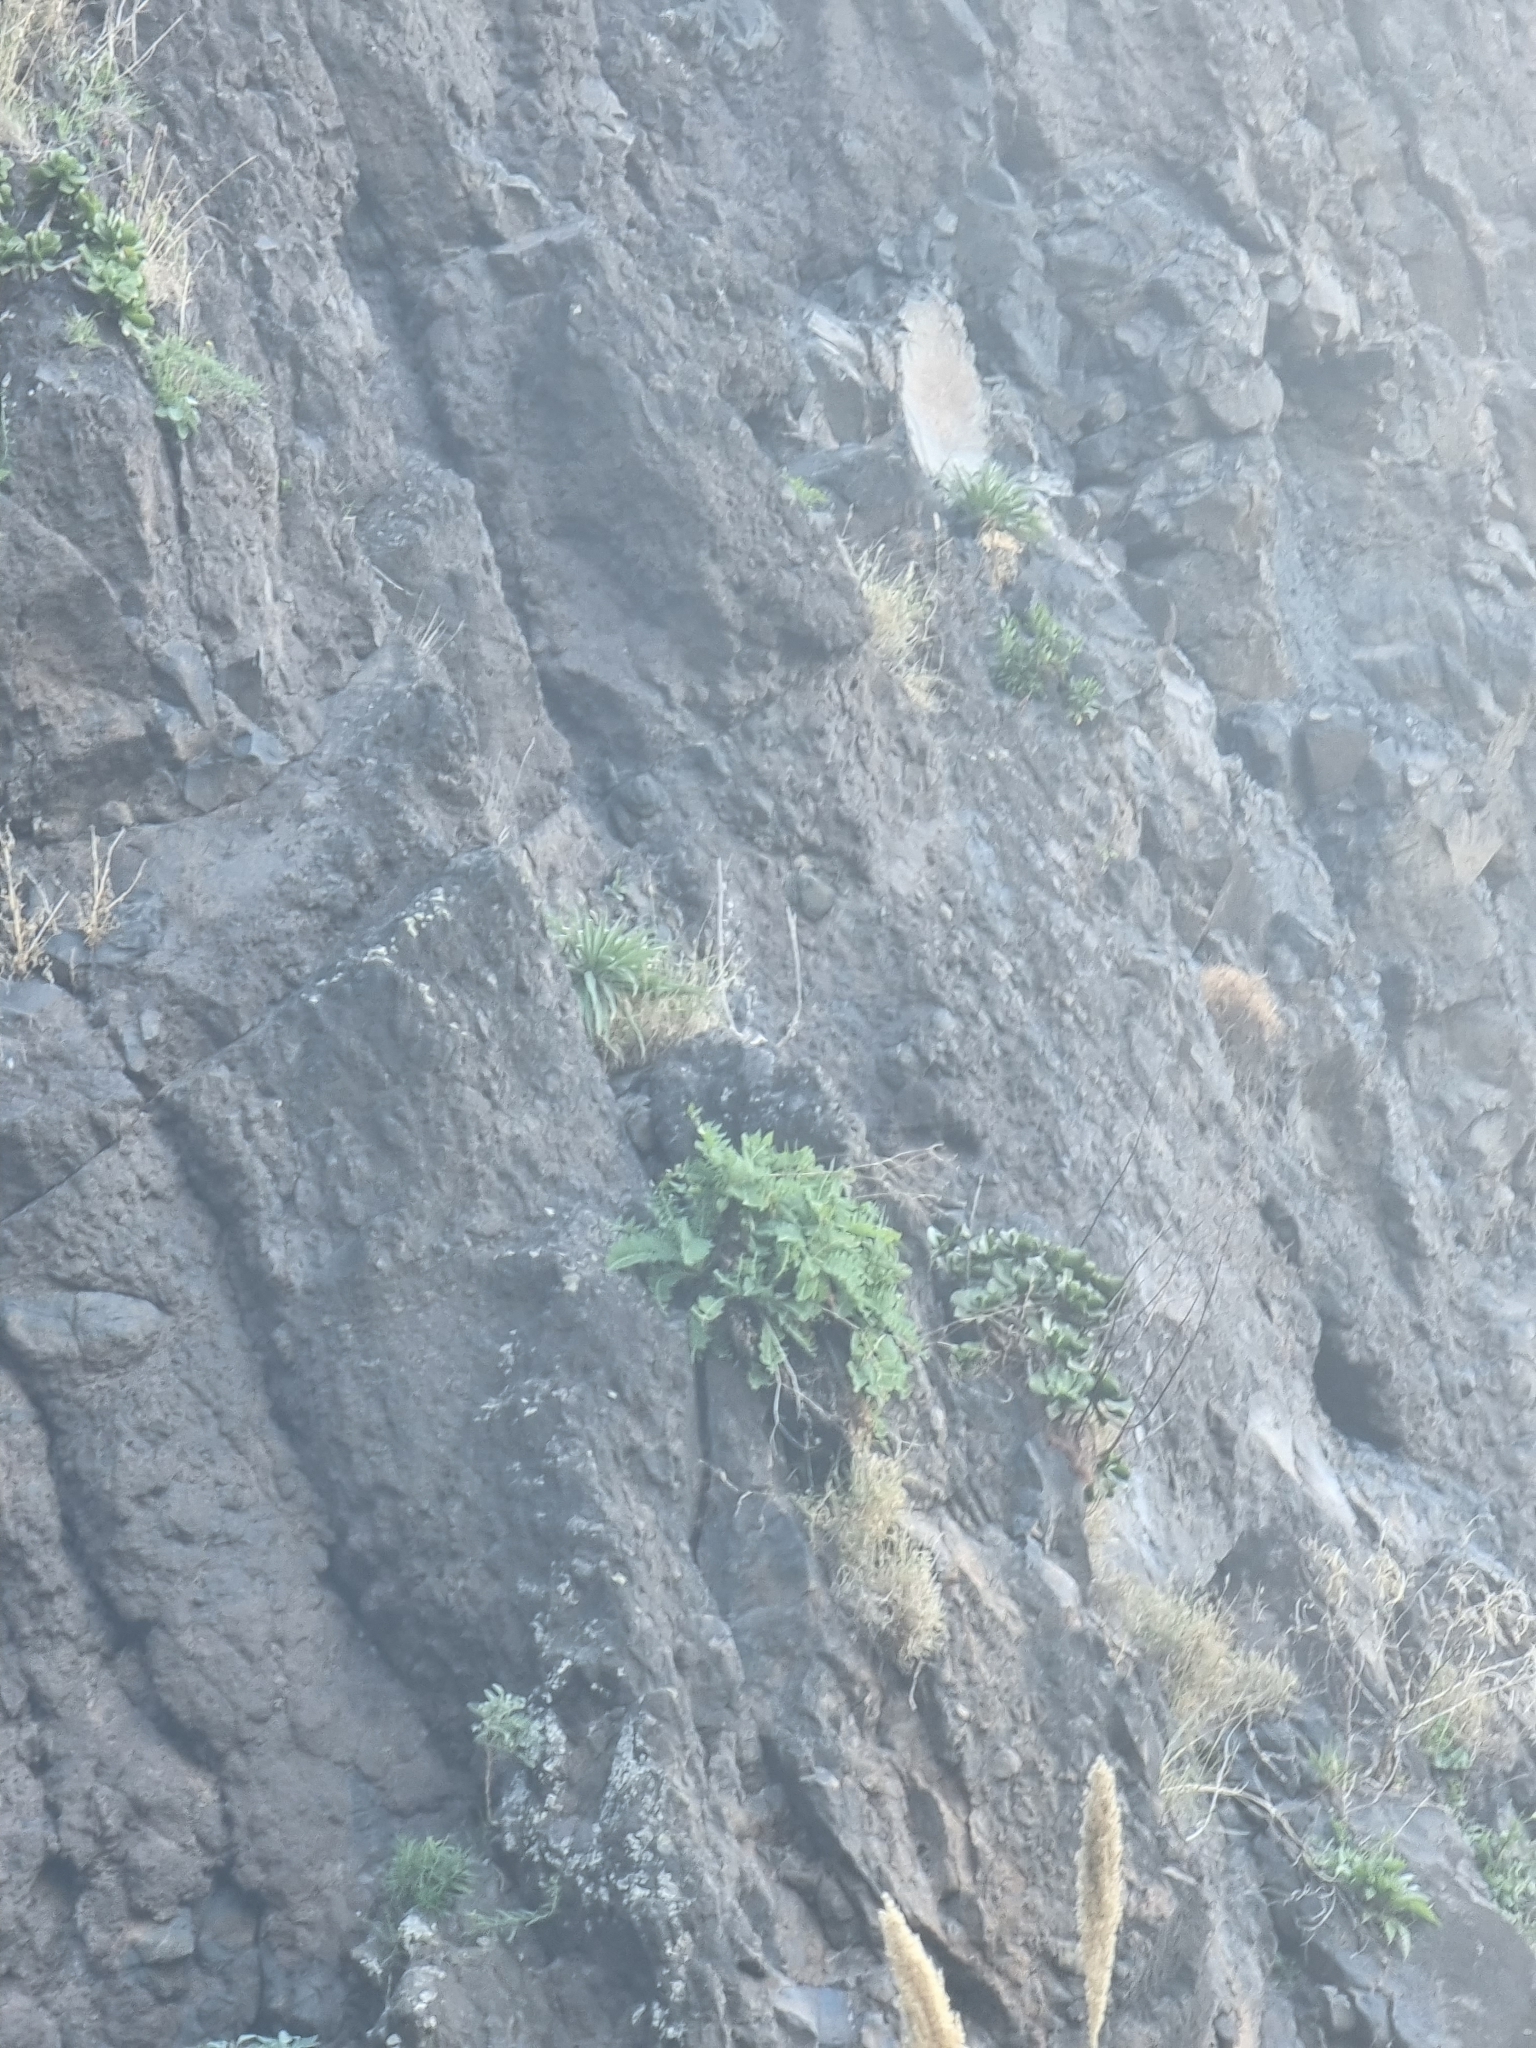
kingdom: Plantae
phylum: Tracheophyta
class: Magnoliopsida
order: Asterales
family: Asteraceae
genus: Sonchus
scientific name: Sonchus latifolius
